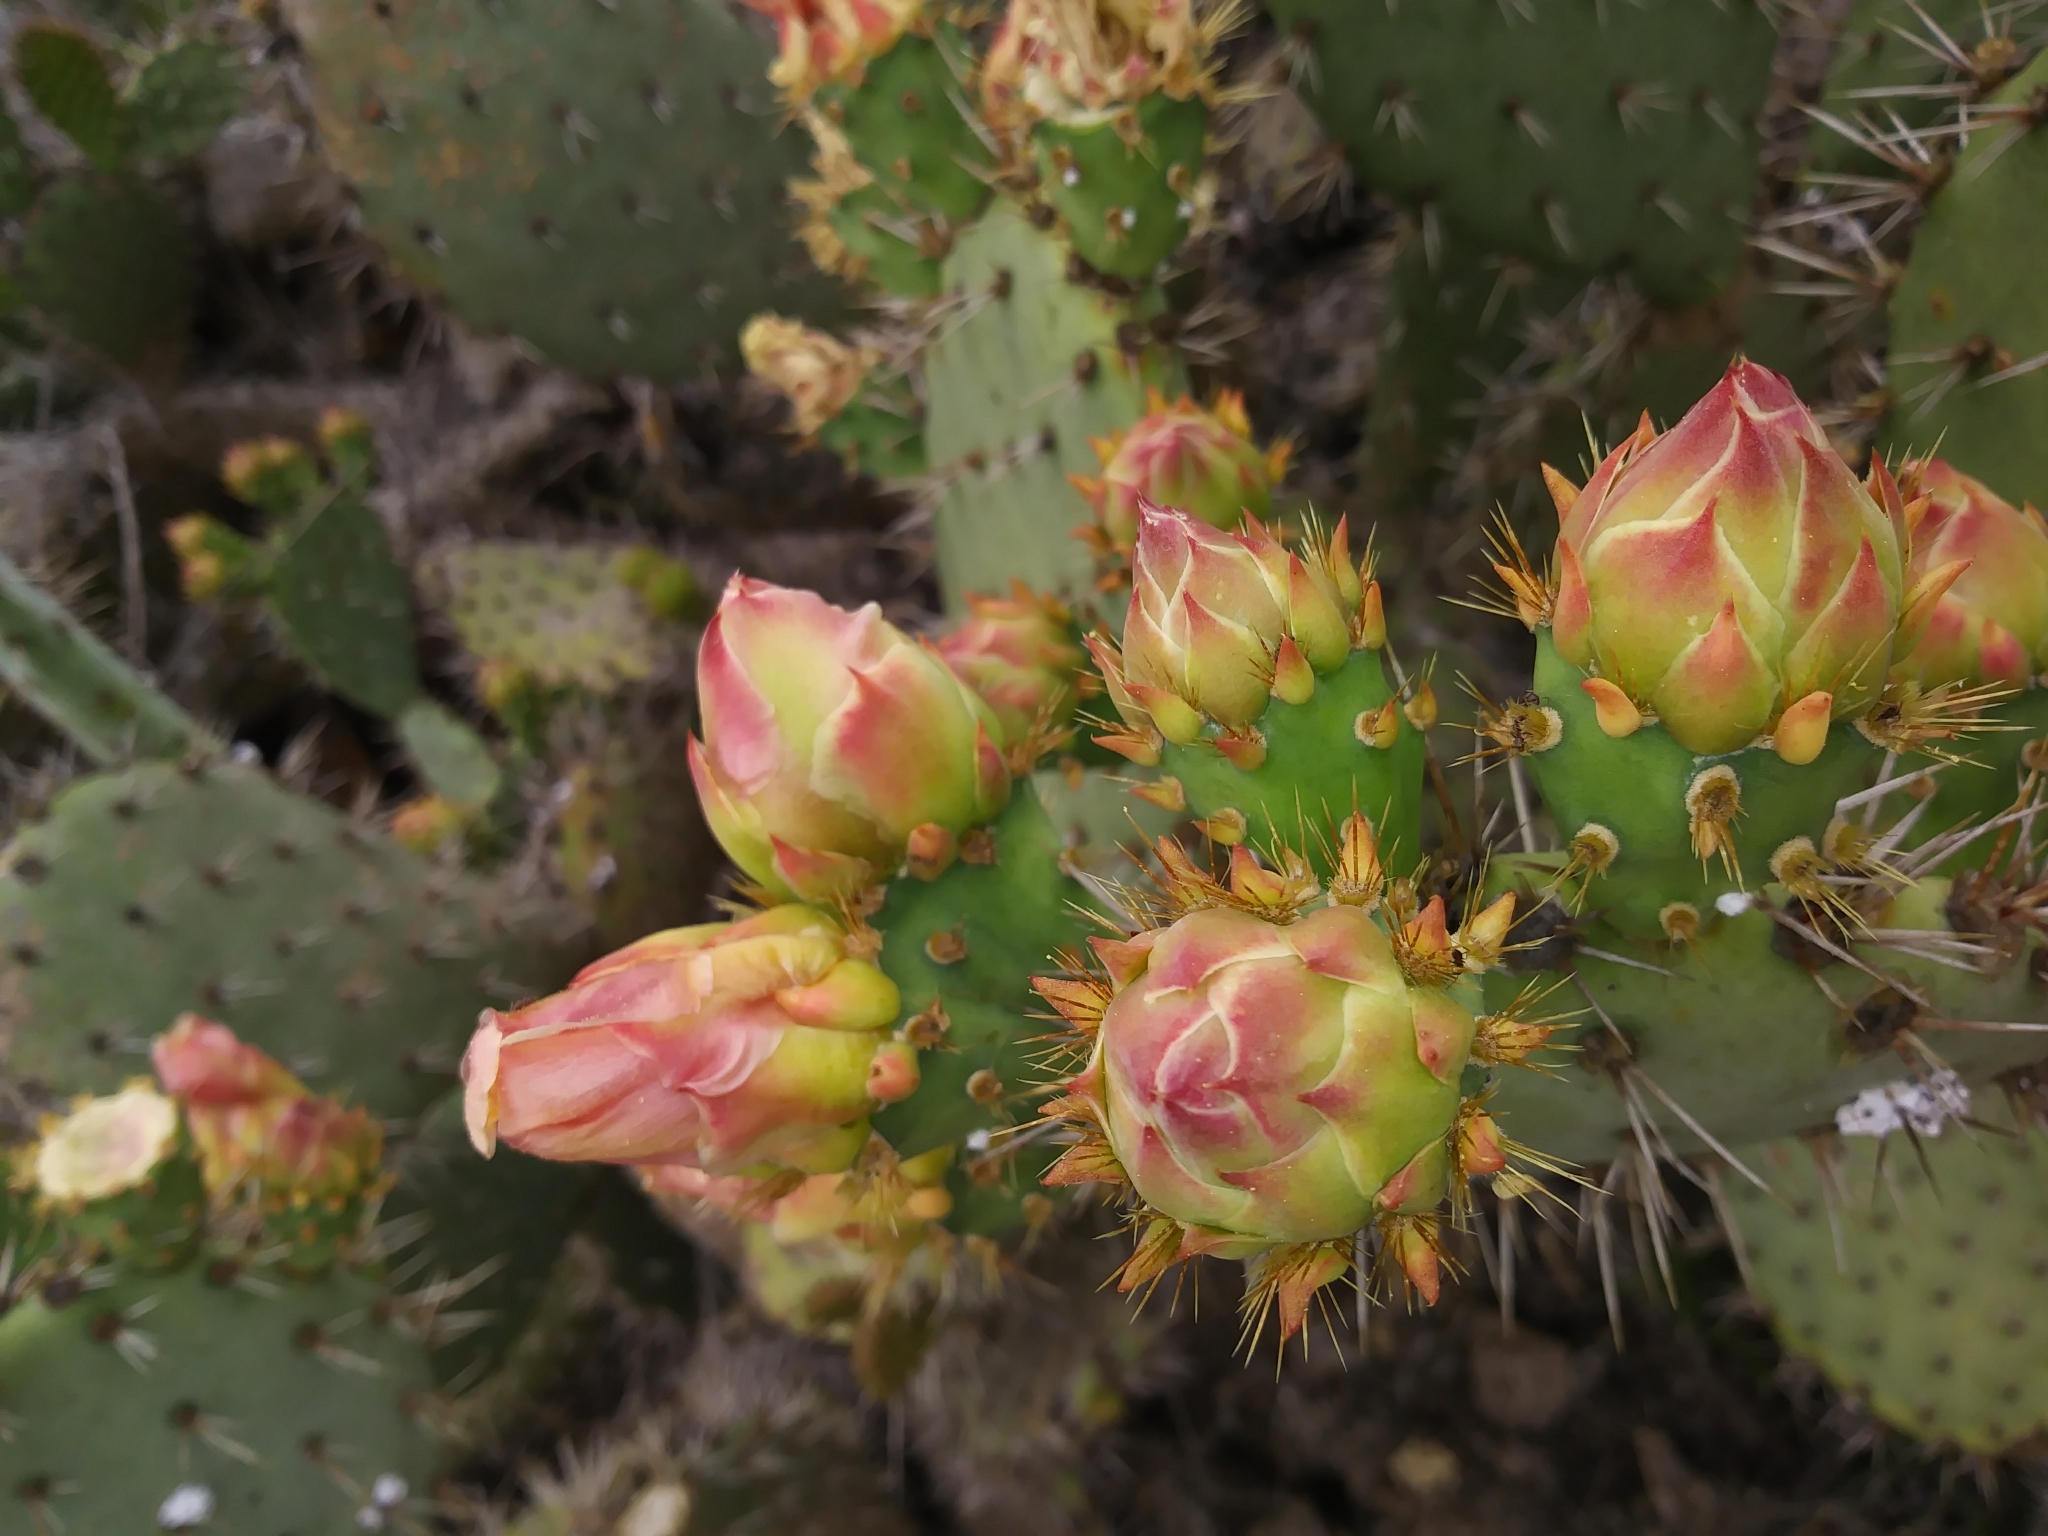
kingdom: Plantae
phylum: Tracheophyta
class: Magnoliopsida
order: Caryophyllales
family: Cactaceae
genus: Opuntia
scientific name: Opuntia
